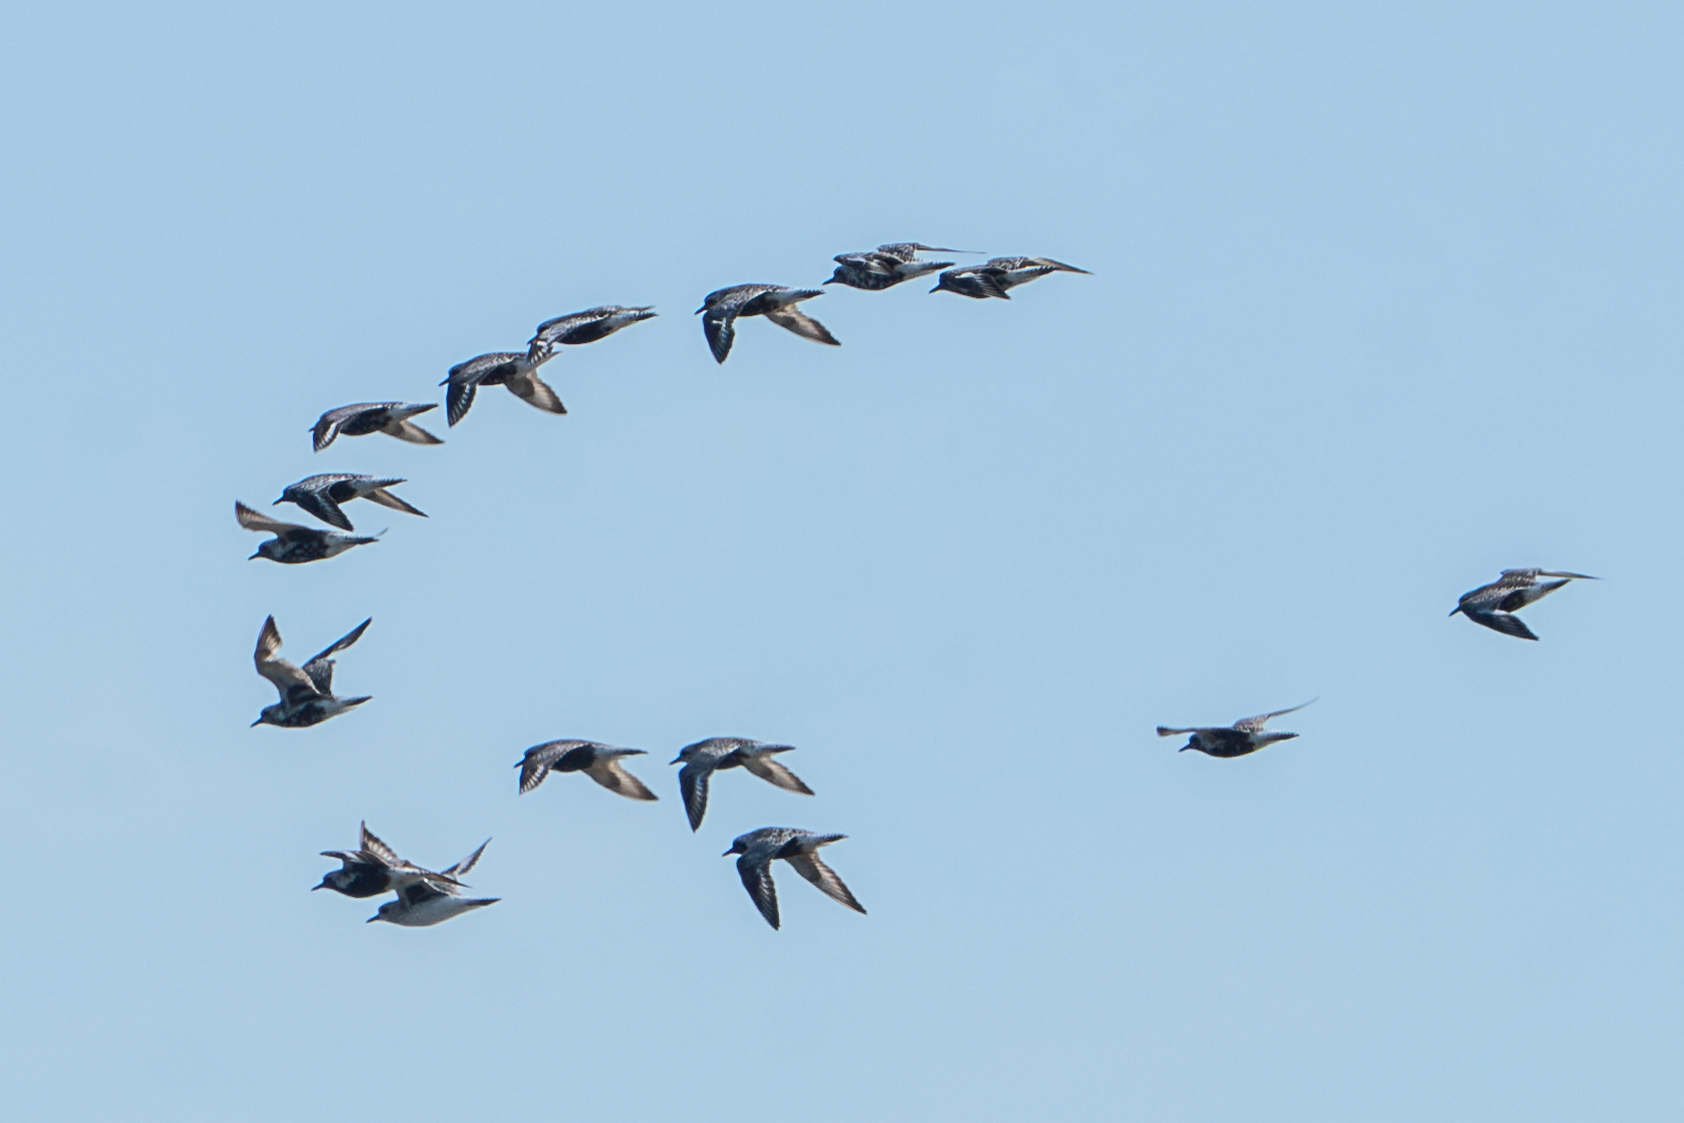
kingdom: Animalia
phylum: Chordata
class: Aves
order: Charadriiformes
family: Charadriidae
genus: Pluvialis
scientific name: Pluvialis squatarola
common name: Grey plover
